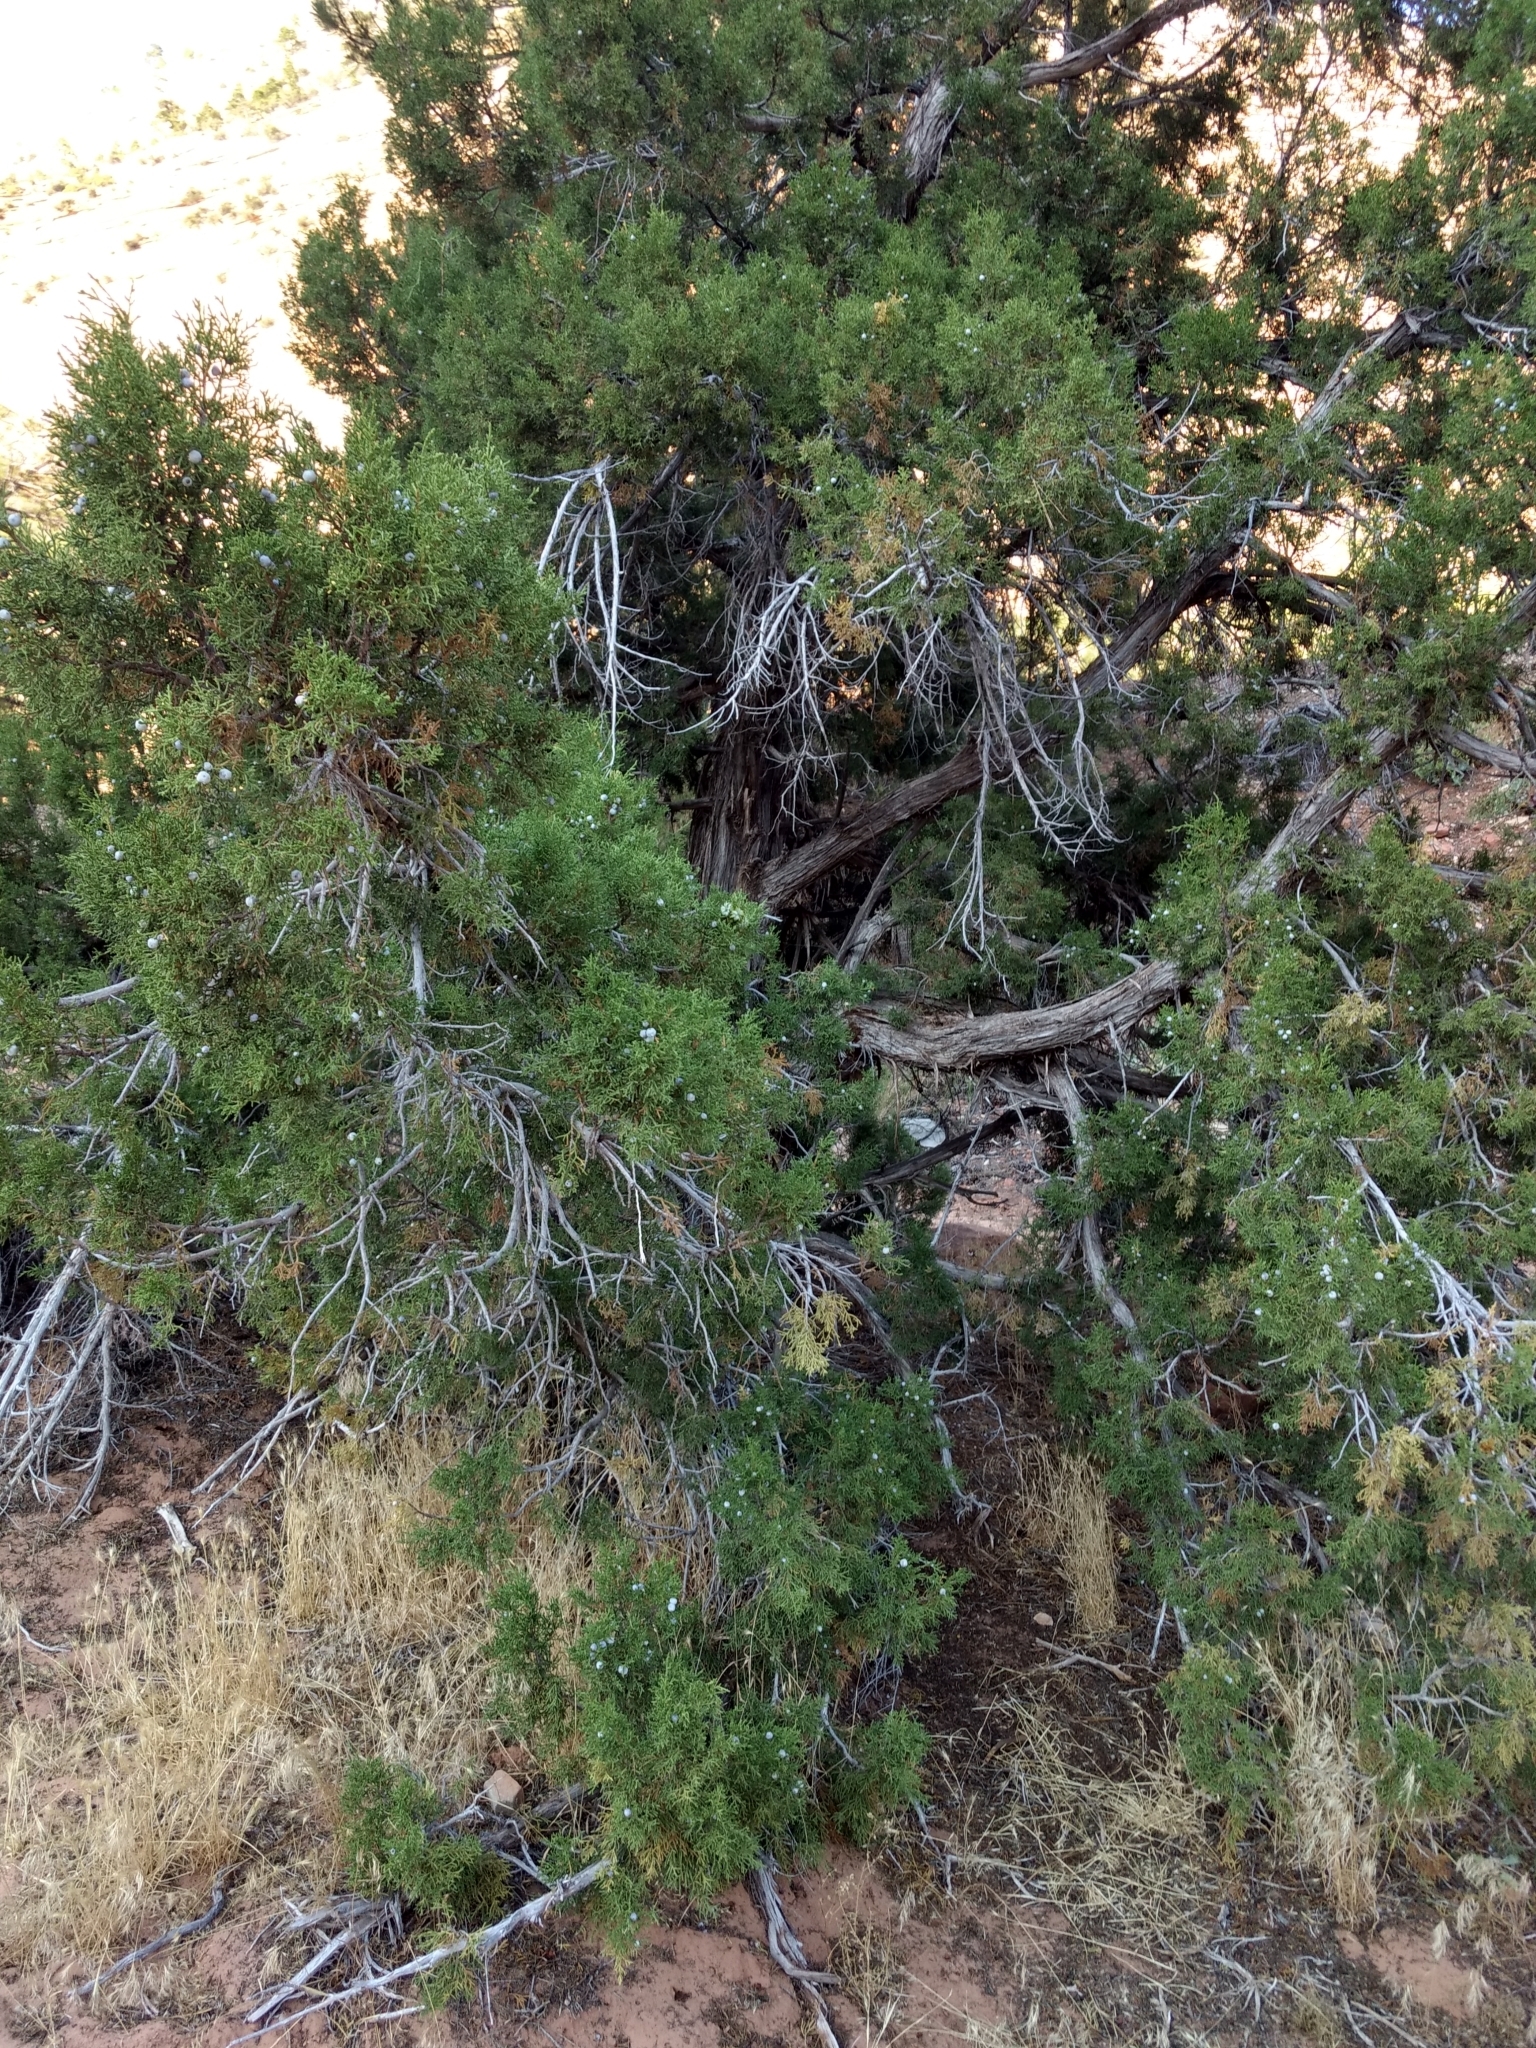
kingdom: Plantae
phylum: Tracheophyta
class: Pinopsida
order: Pinales
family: Cupressaceae
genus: Juniperus
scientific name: Juniperus osteosperma
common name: Utah juniper
